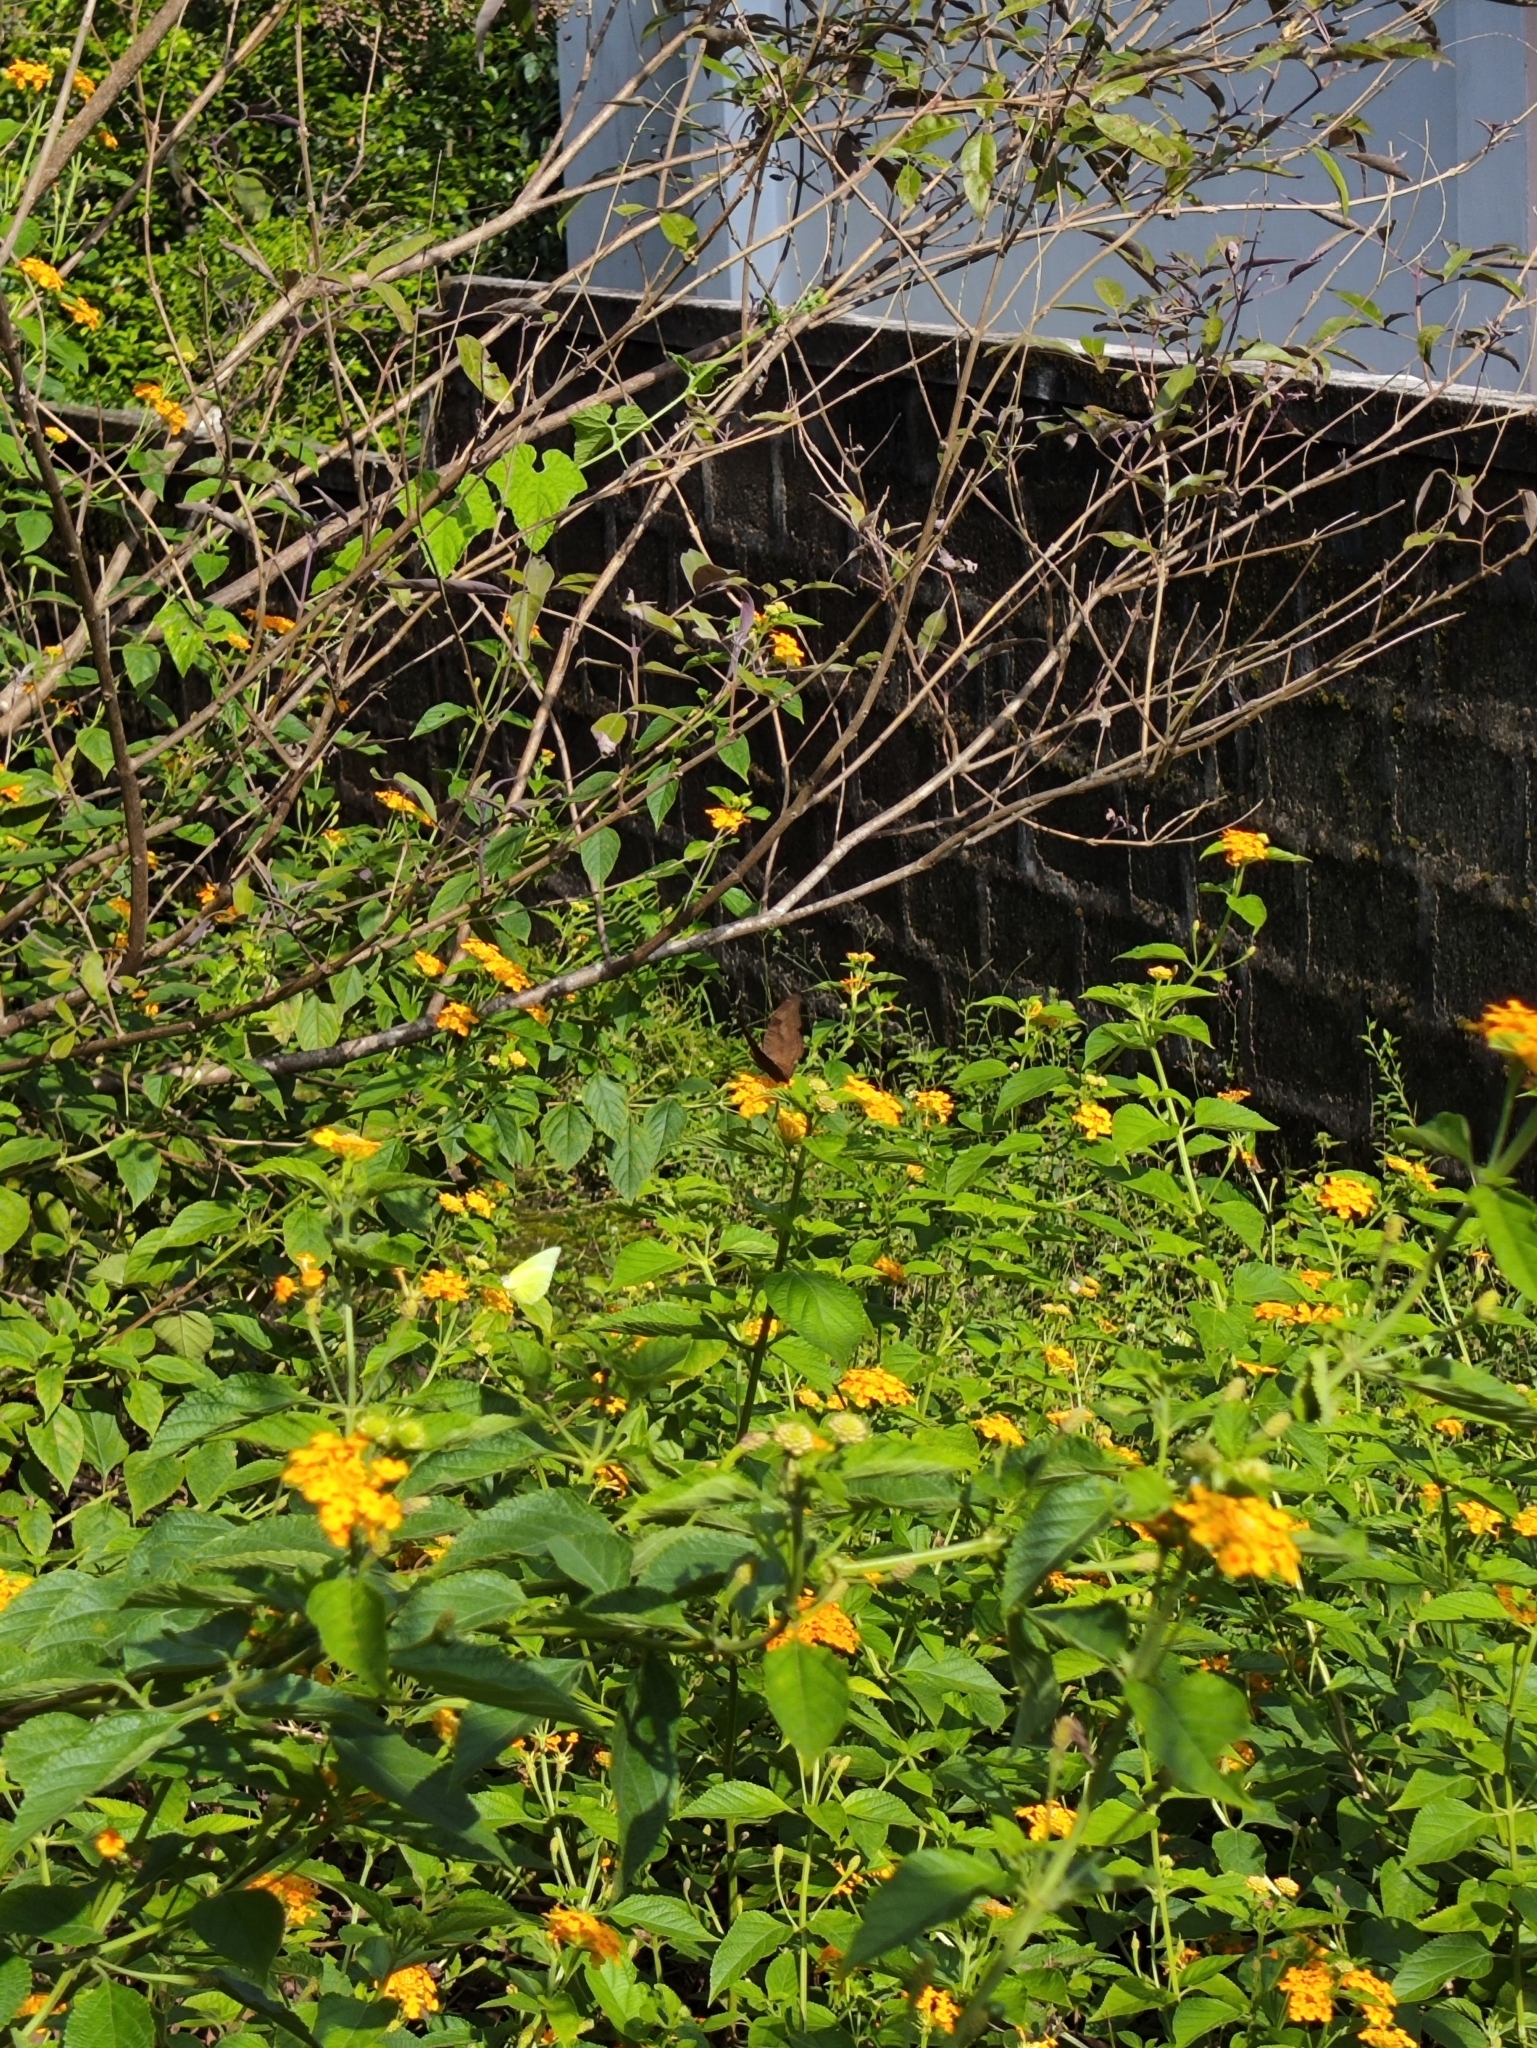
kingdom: Animalia
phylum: Arthropoda
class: Insecta
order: Lepidoptera
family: Nymphalidae
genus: Junonia
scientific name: Junonia iphita
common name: Chocolate pansy
